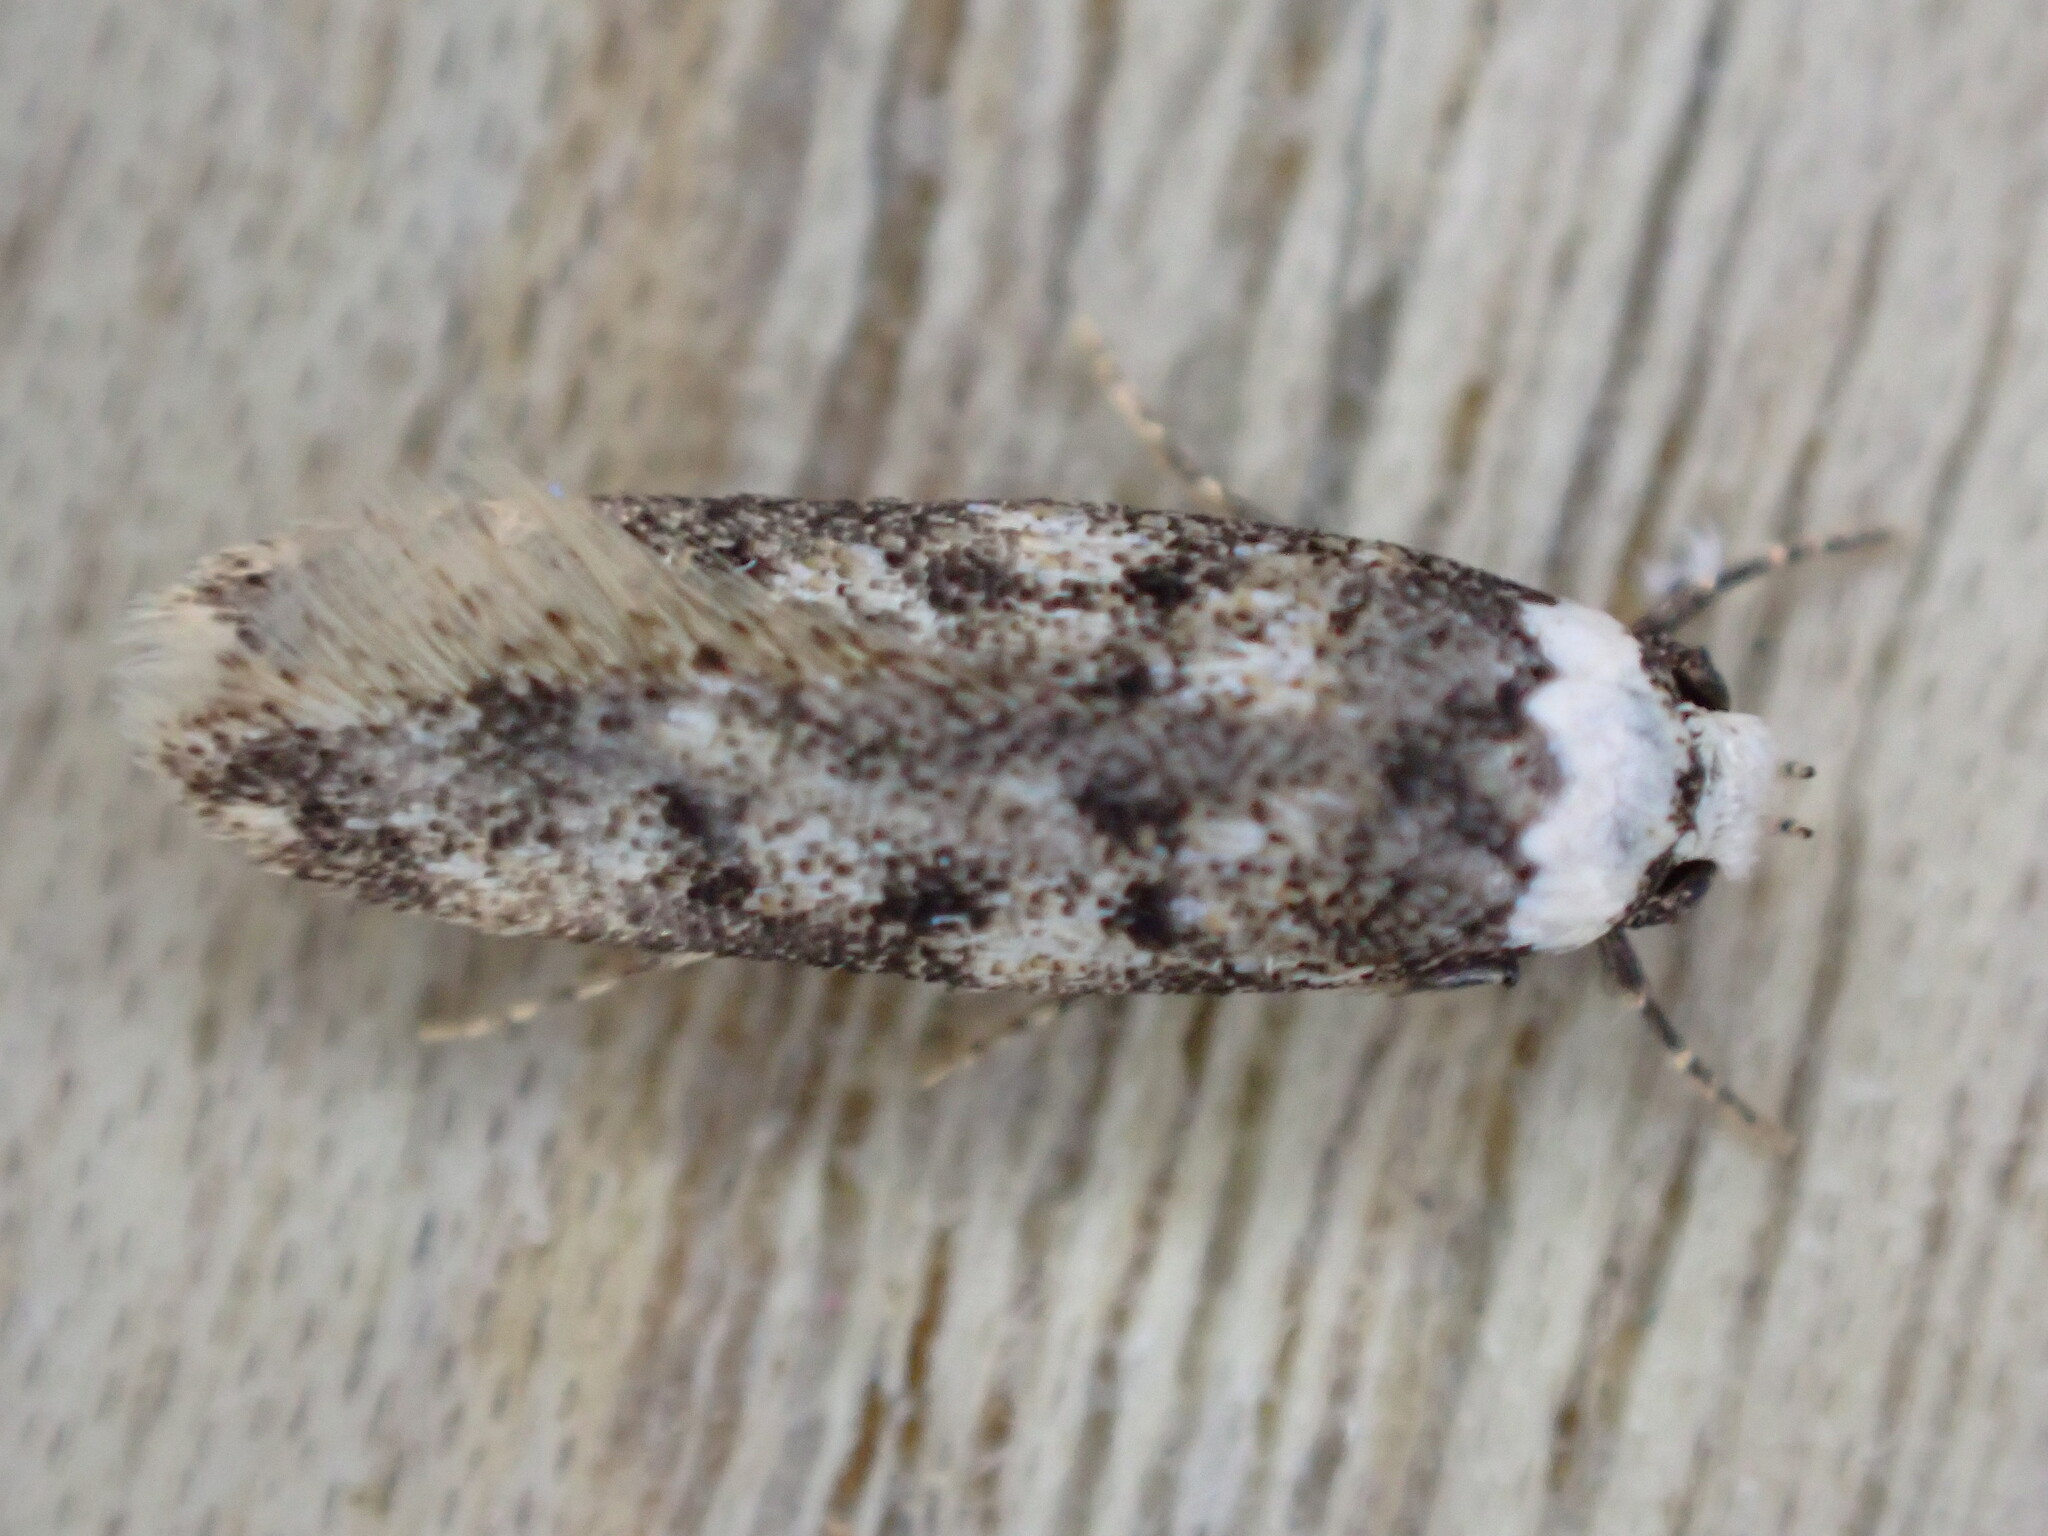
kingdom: Animalia
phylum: Arthropoda
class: Insecta
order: Lepidoptera
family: Oecophoridae
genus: Endrosis
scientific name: Endrosis sarcitrella
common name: White-shouldered house moth
